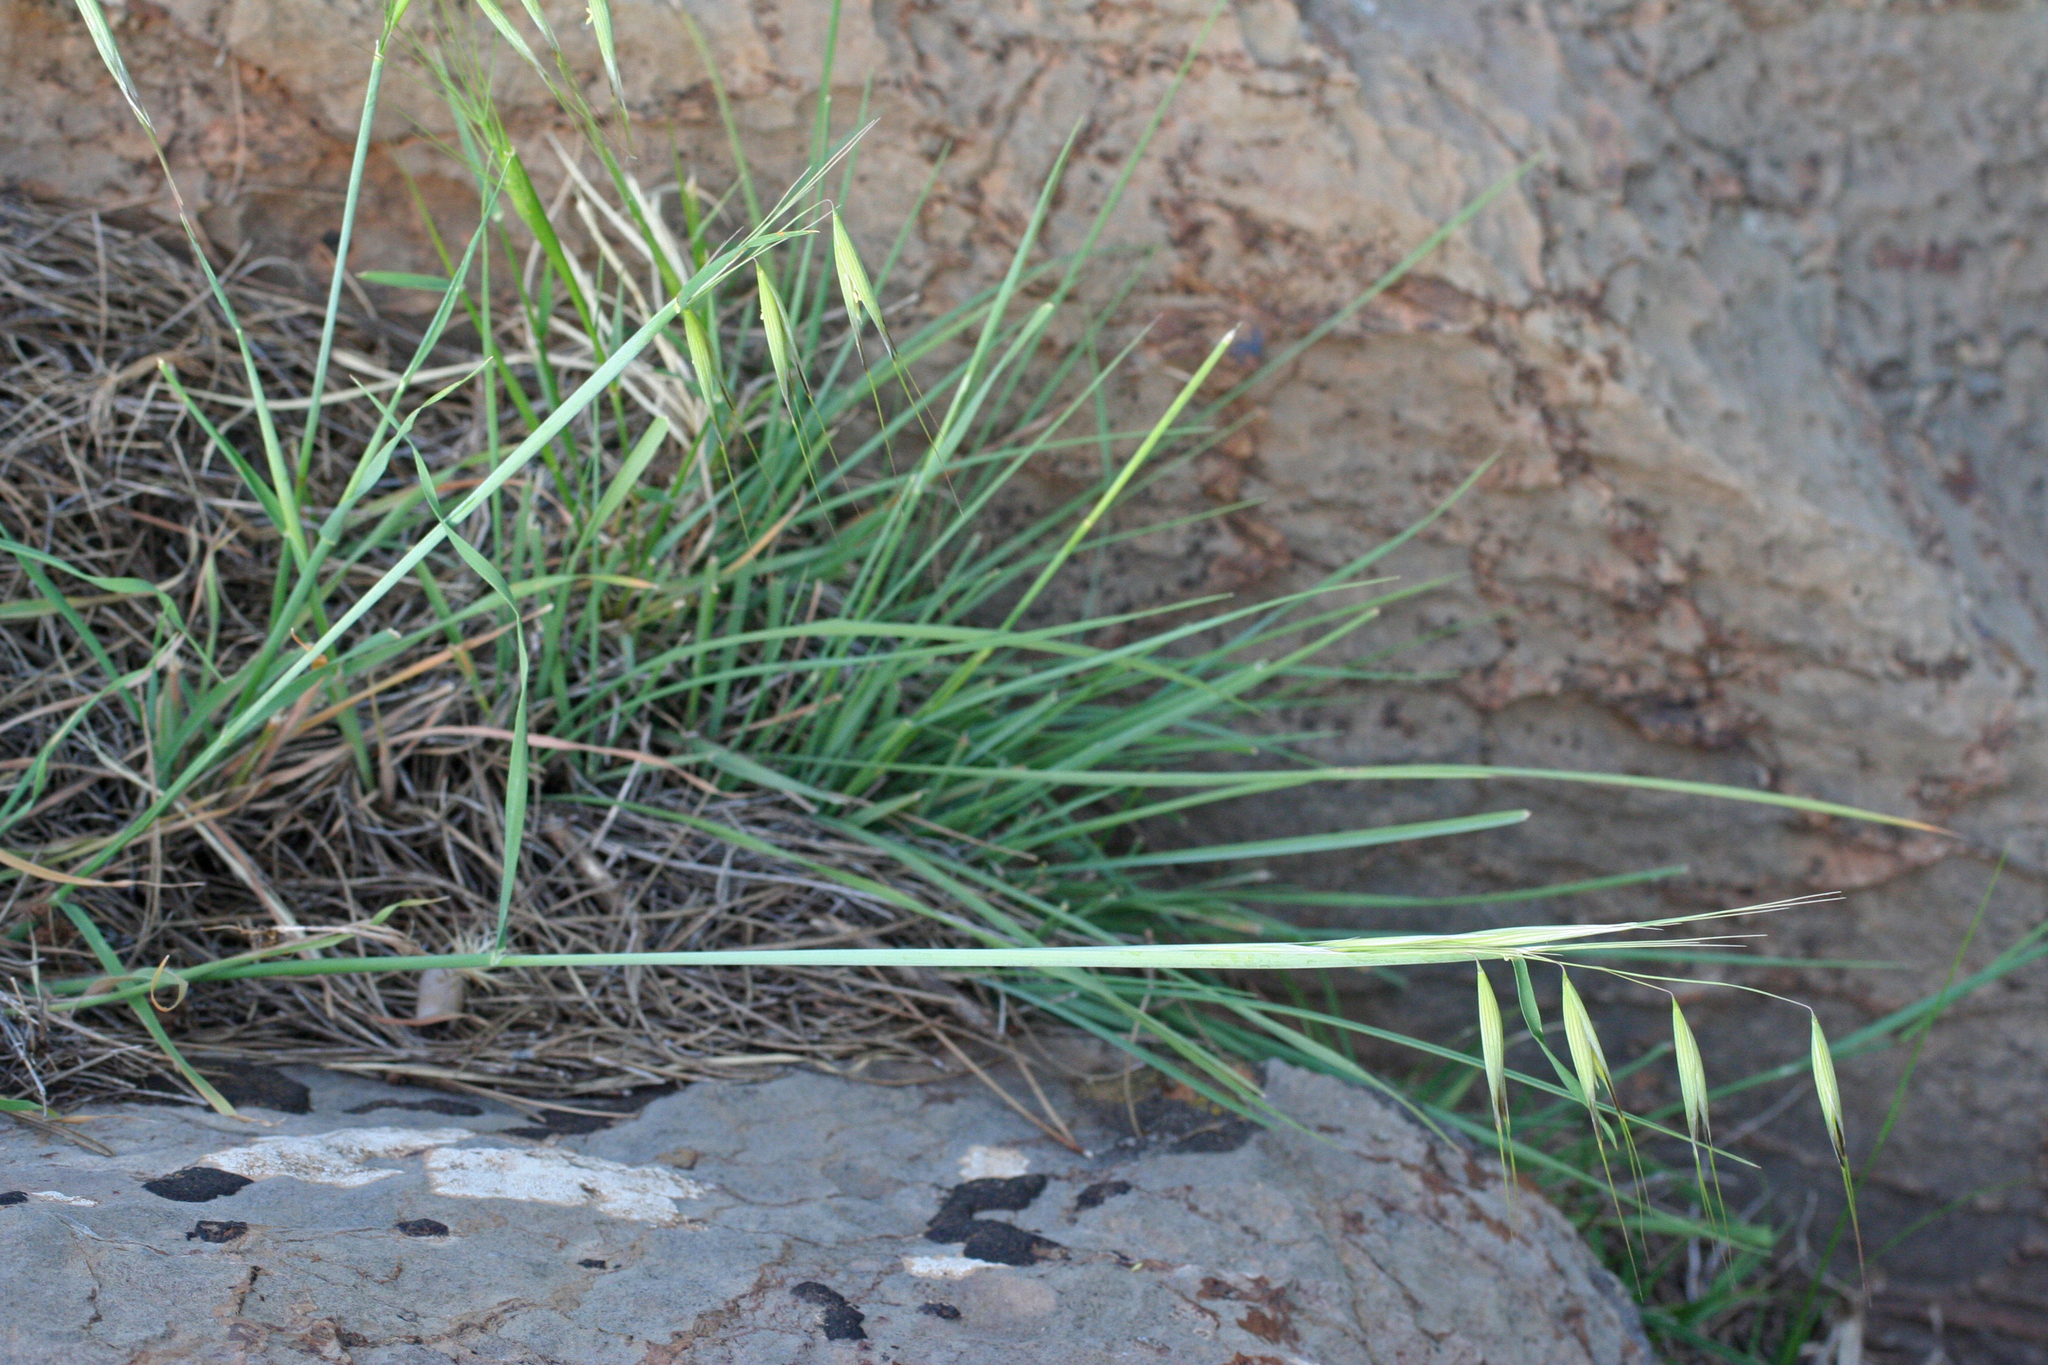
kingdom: Plantae
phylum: Tracheophyta
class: Liliopsida
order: Poales
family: Poaceae
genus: Avena
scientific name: Avena sterilis
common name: Animated oat
